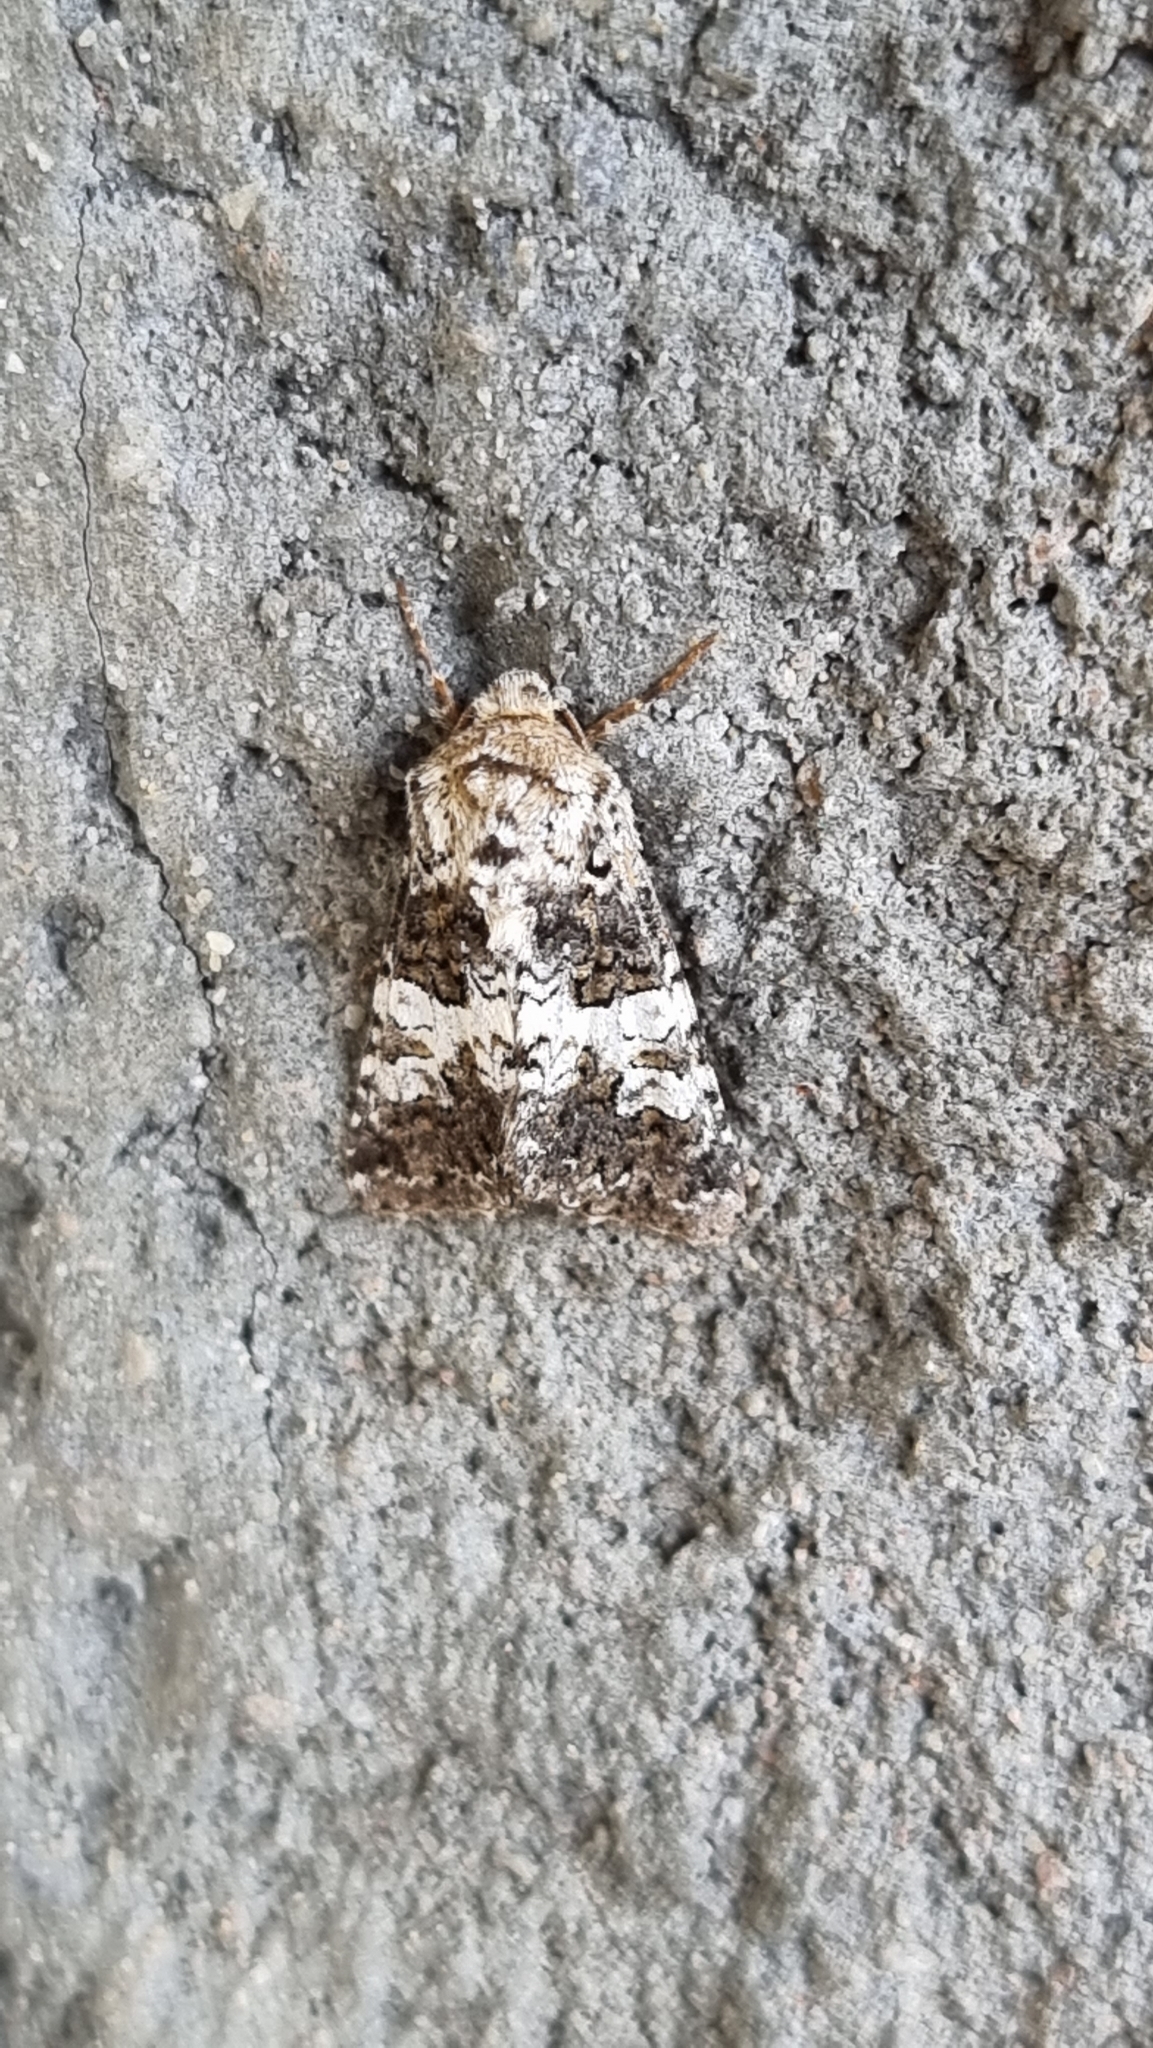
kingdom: Animalia
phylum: Arthropoda
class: Insecta
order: Lepidoptera
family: Noctuidae
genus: Hadena
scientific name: Hadena compta
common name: Varied coronet
